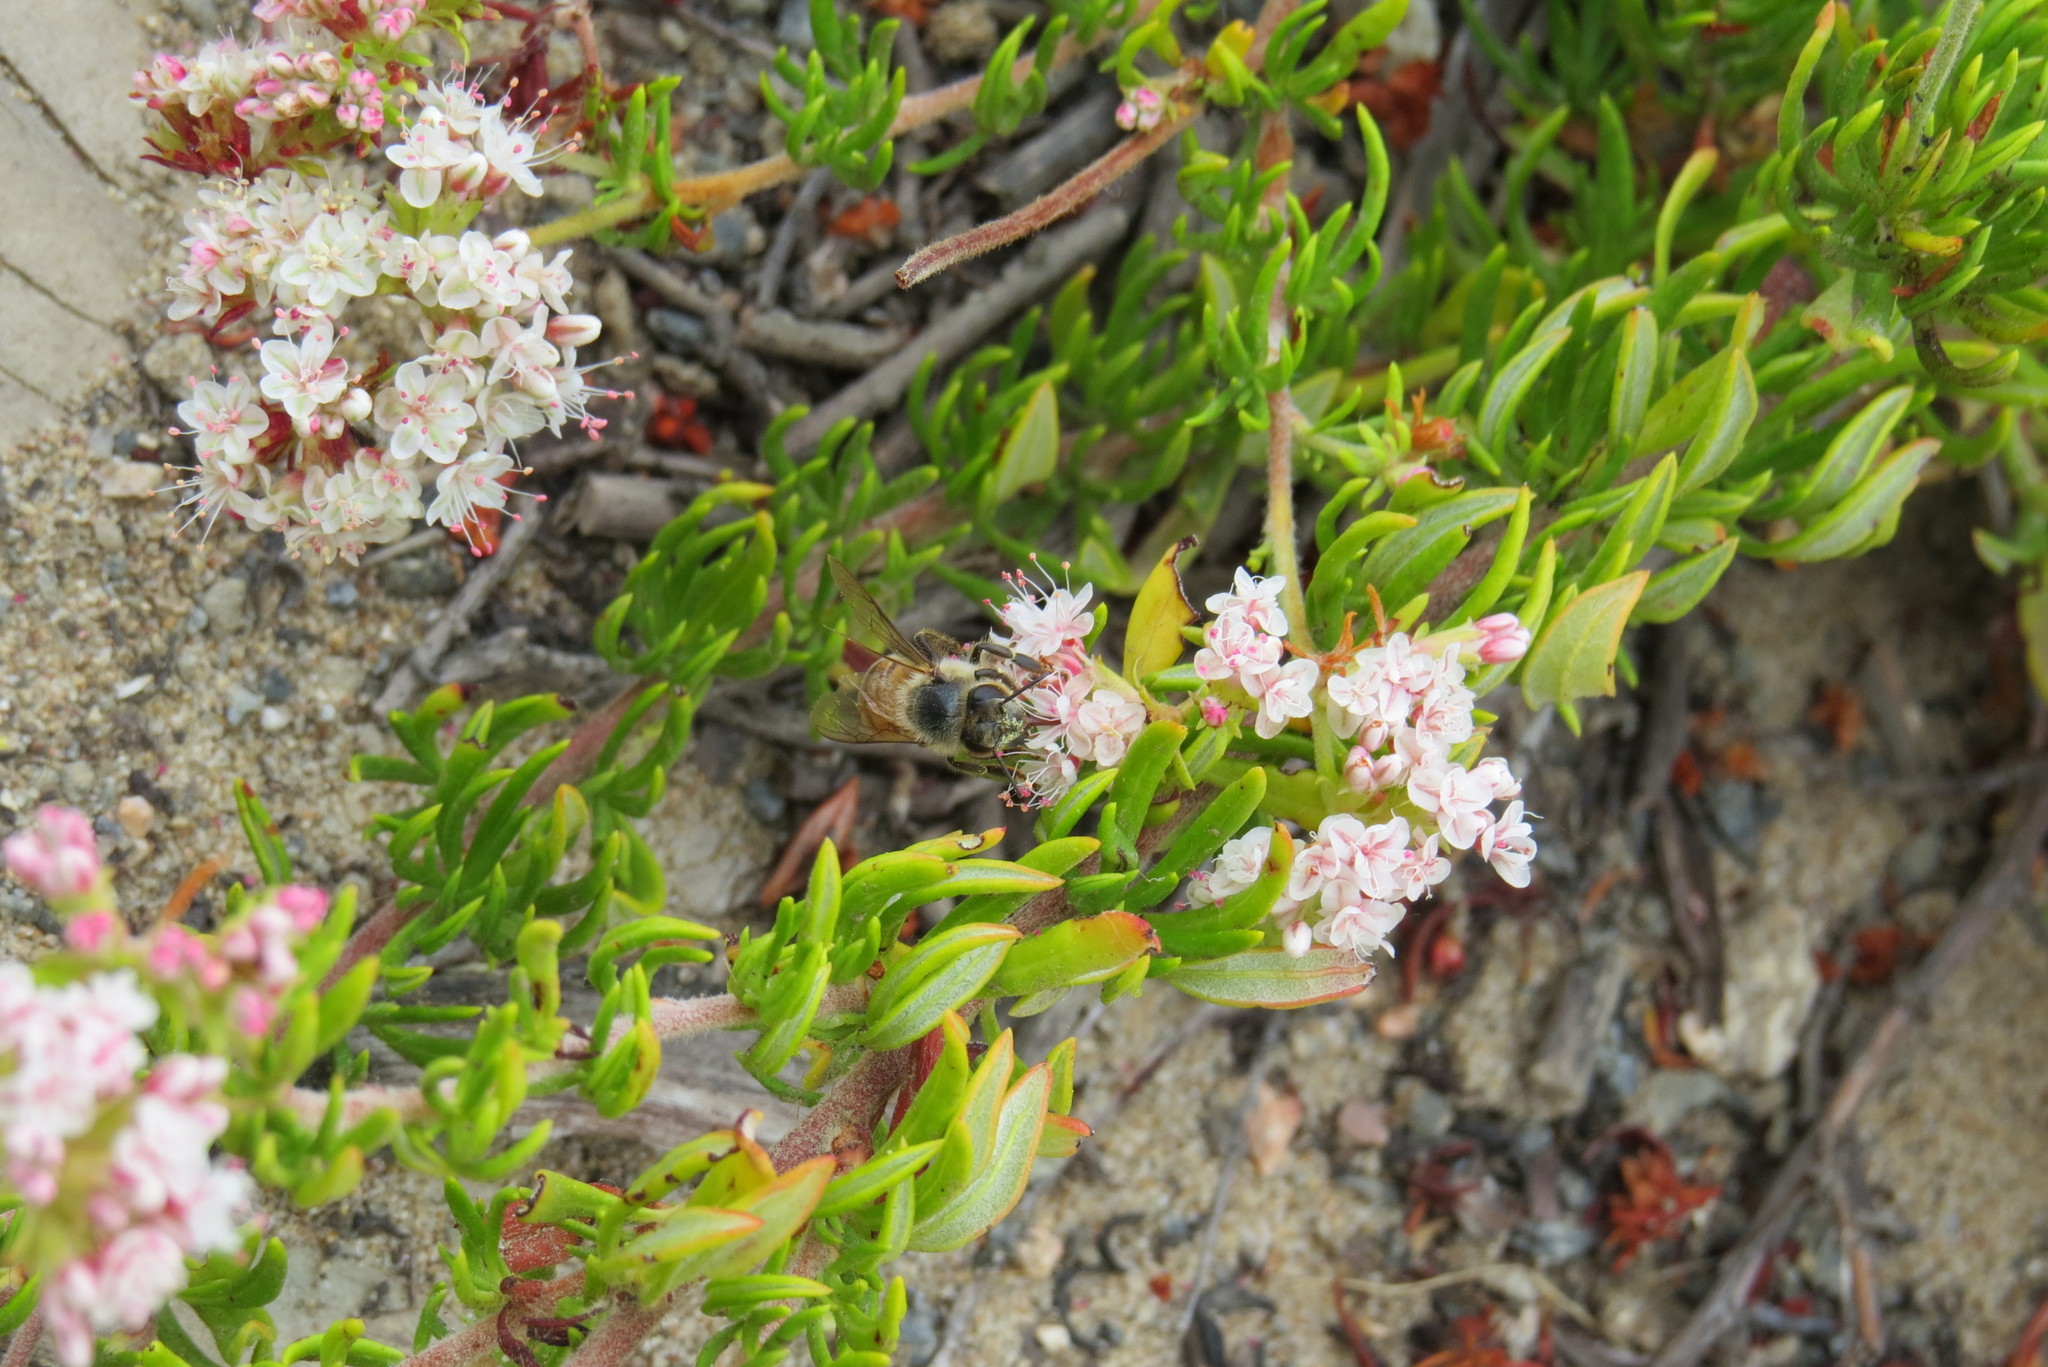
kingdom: Plantae
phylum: Tracheophyta
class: Magnoliopsida
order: Caryophyllales
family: Polygonaceae
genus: Eriogonum
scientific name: Eriogonum fasciculatum
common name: California wild buckwheat
